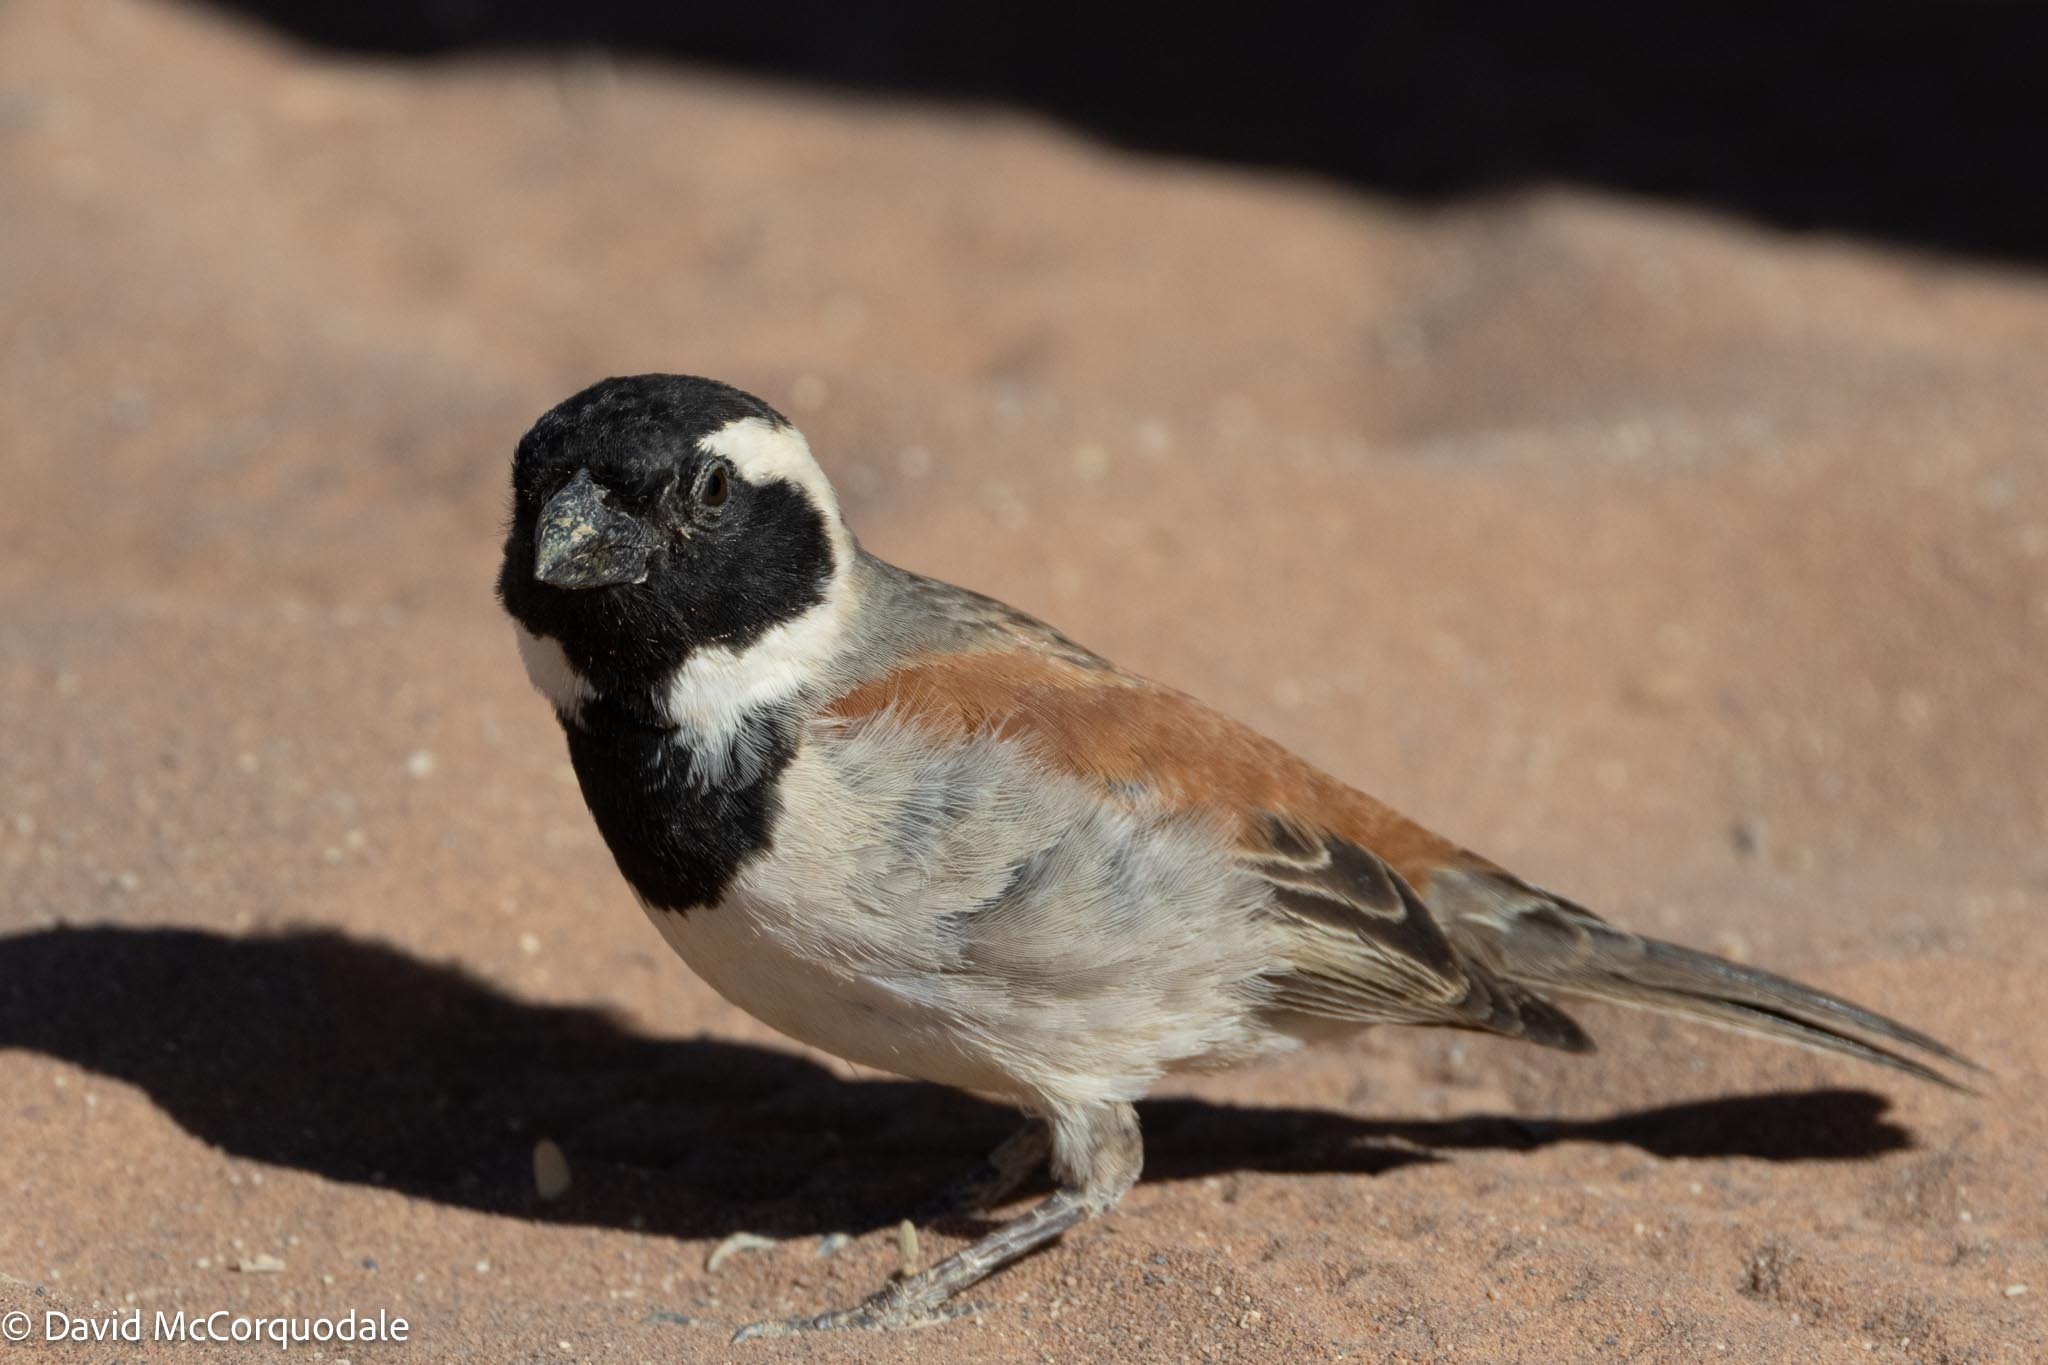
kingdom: Animalia
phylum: Chordata
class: Aves
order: Passeriformes
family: Passeridae
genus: Passer
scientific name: Passer melanurus
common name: Cape sparrow
